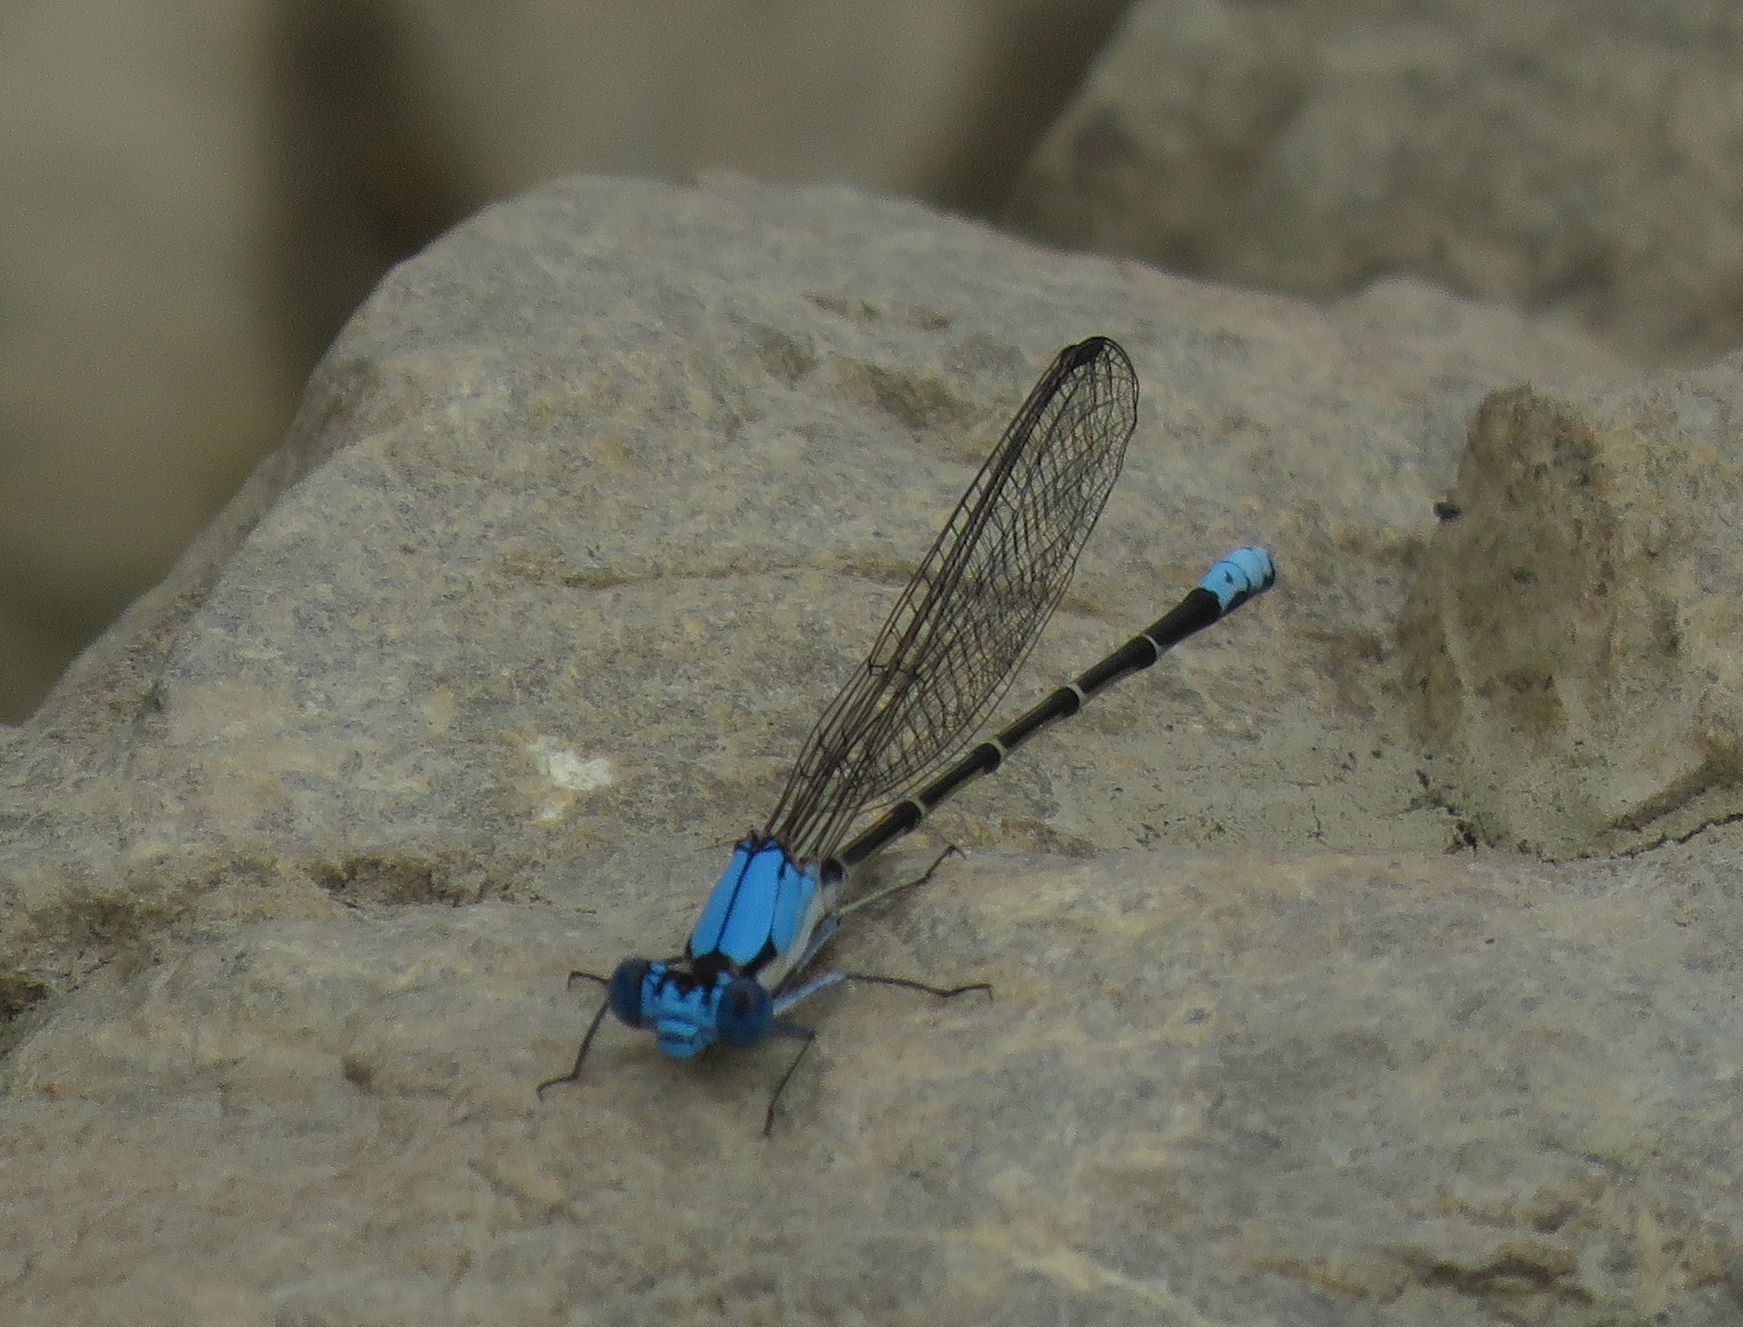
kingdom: Animalia
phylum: Arthropoda
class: Insecta
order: Odonata
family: Coenagrionidae
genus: Argia
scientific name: Argia apicalis
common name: Blue-fronted dancer
